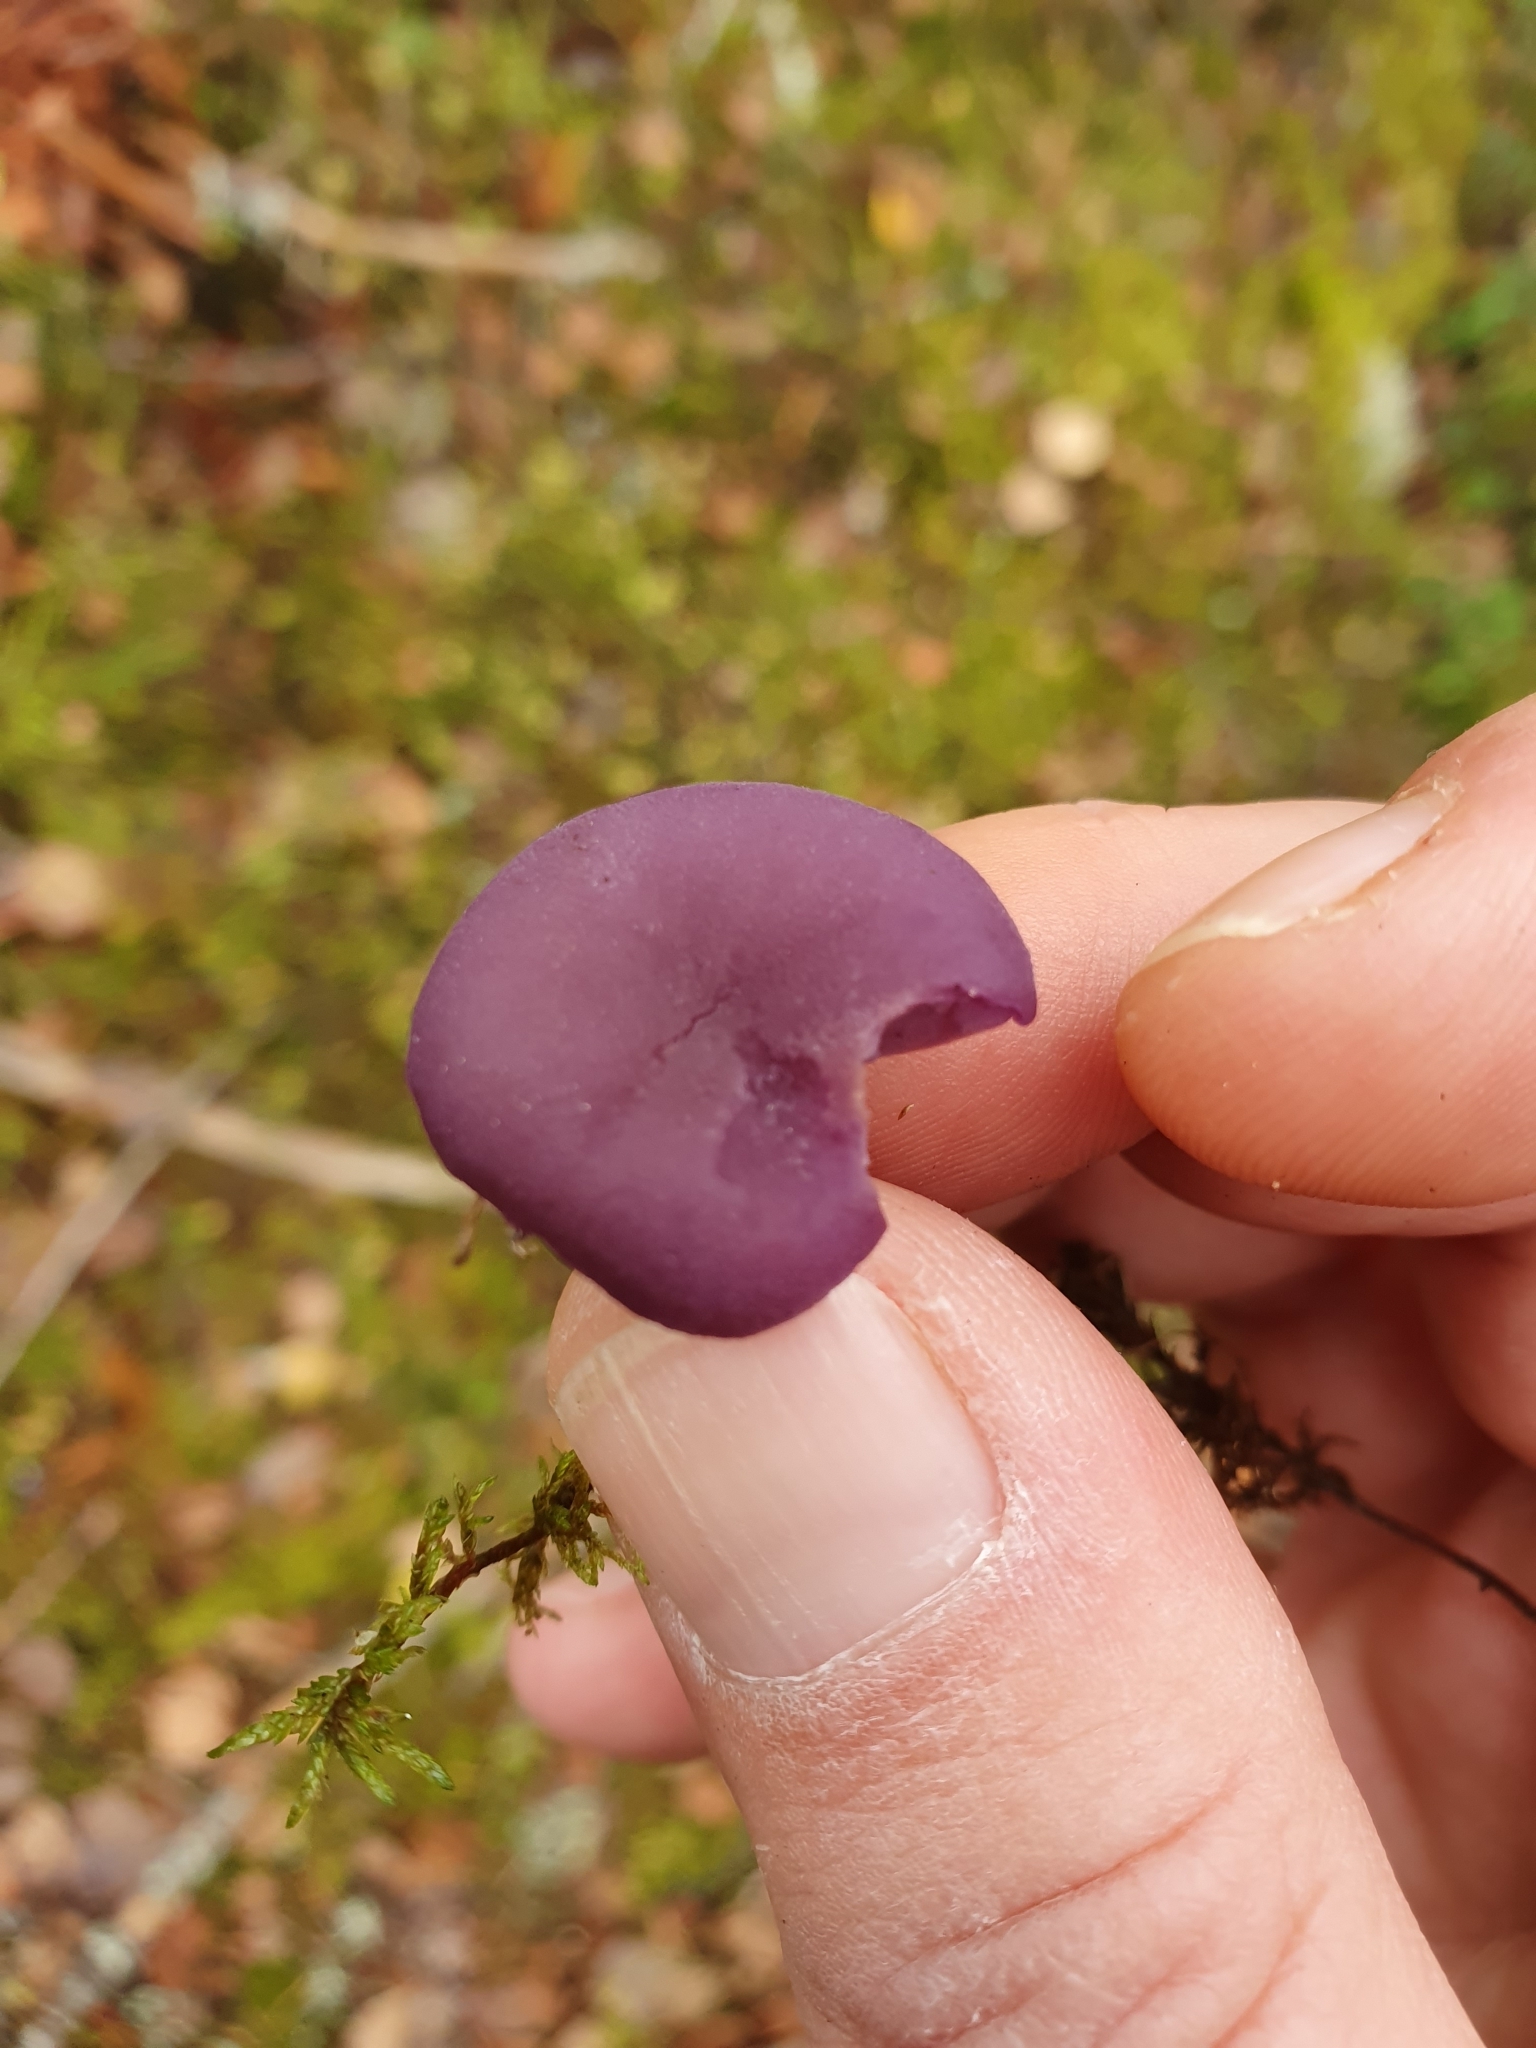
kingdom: Fungi
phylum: Basidiomycota
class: Agaricomycetes
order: Agaricales
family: Hydnangiaceae
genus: Laccaria
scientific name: Laccaria amethystina
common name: Amethyst deceiver
